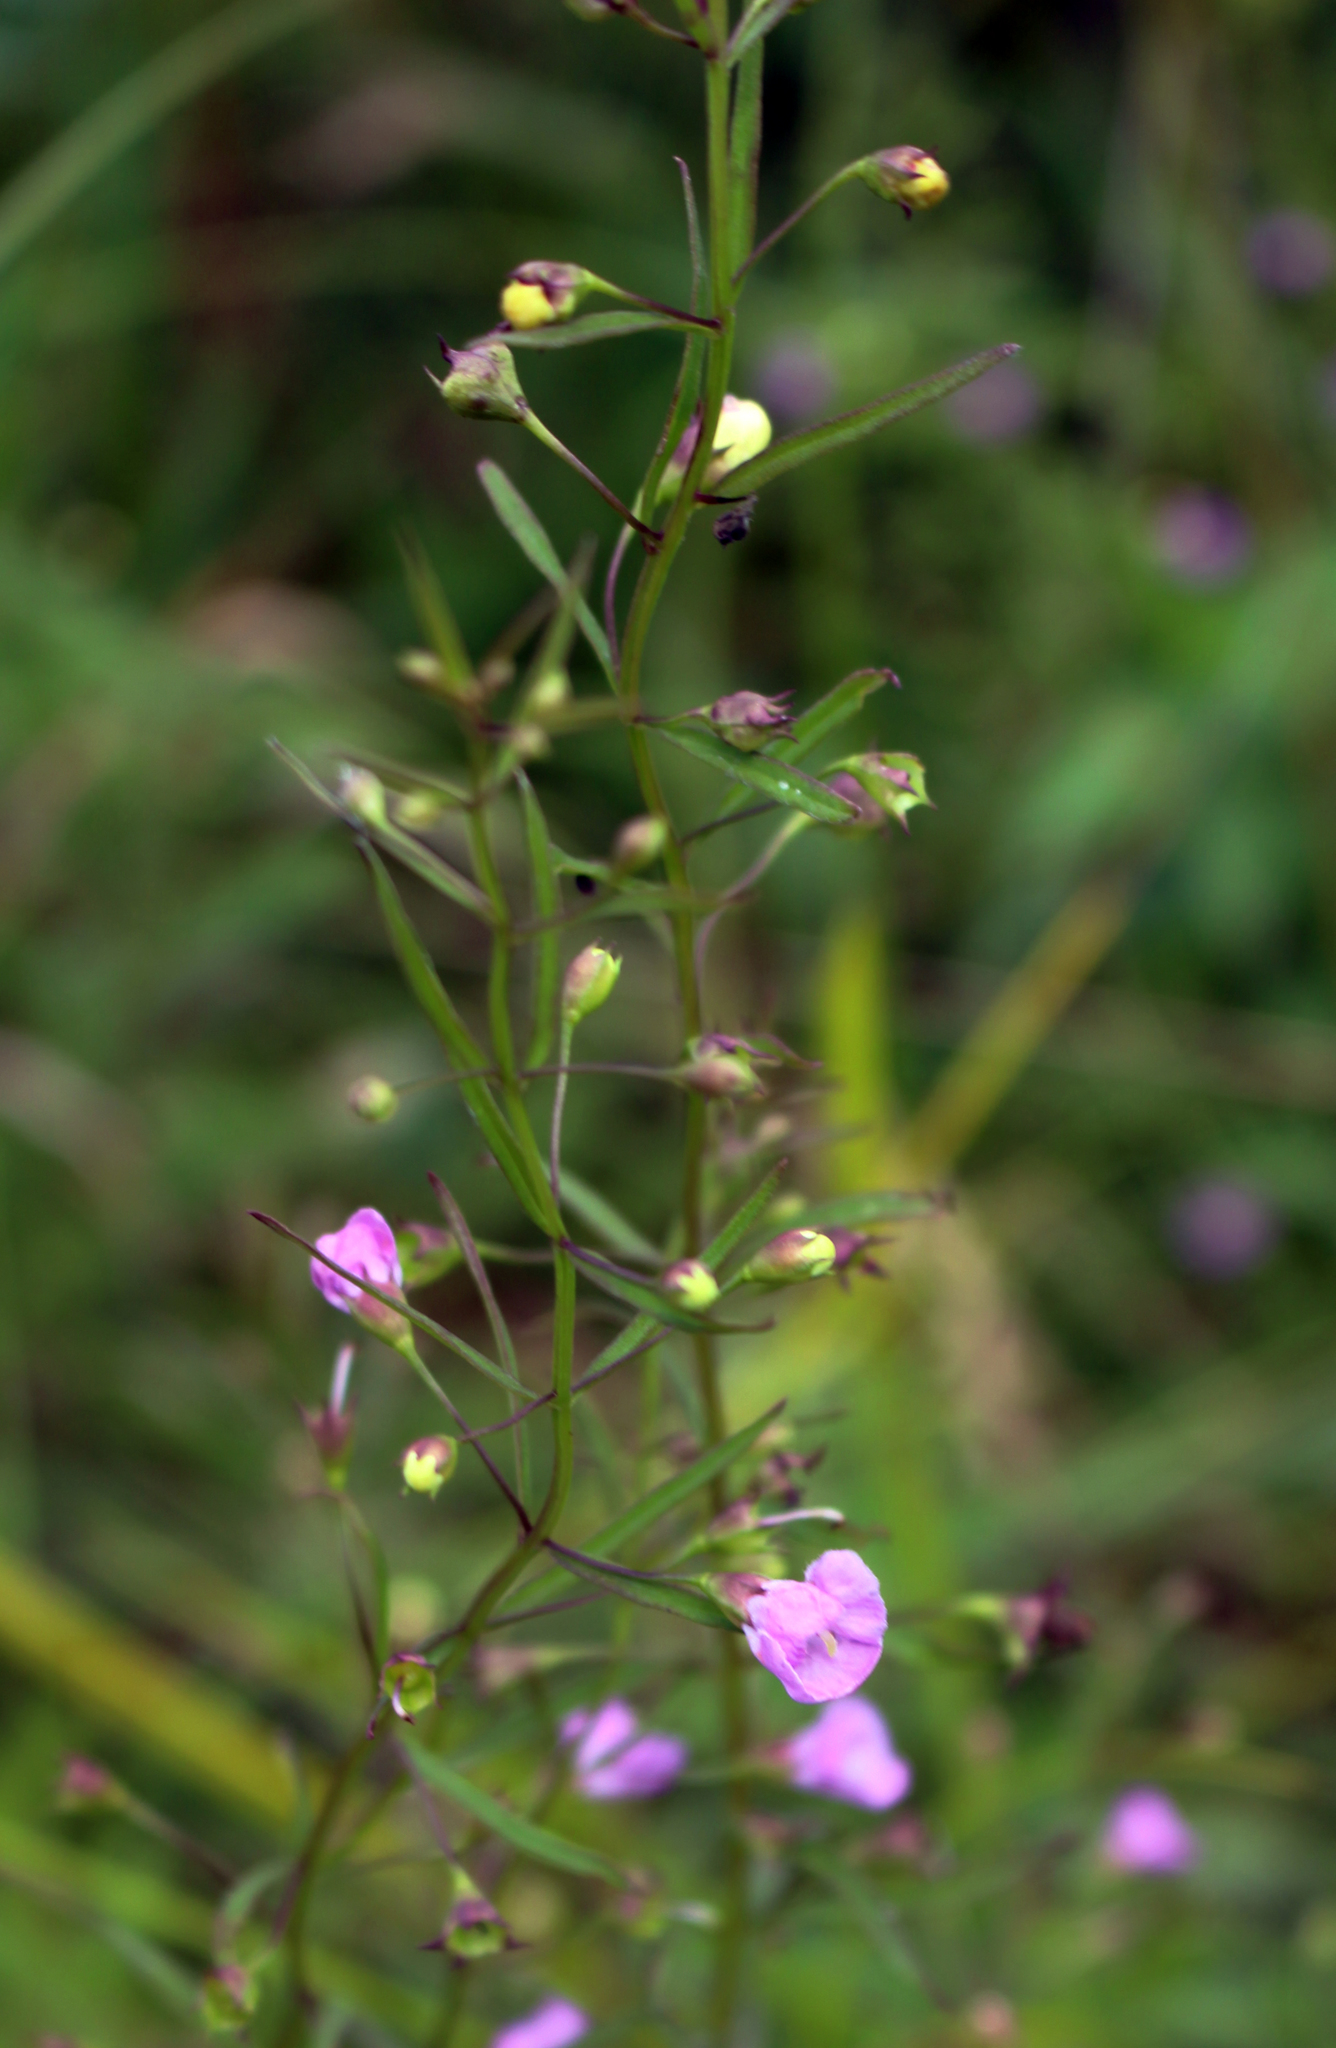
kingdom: Plantae
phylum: Tracheophyta
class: Magnoliopsida
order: Lamiales
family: Orobanchaceae
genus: Agalinis
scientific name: Agalinis tenuifolia
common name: Slender agalinis
